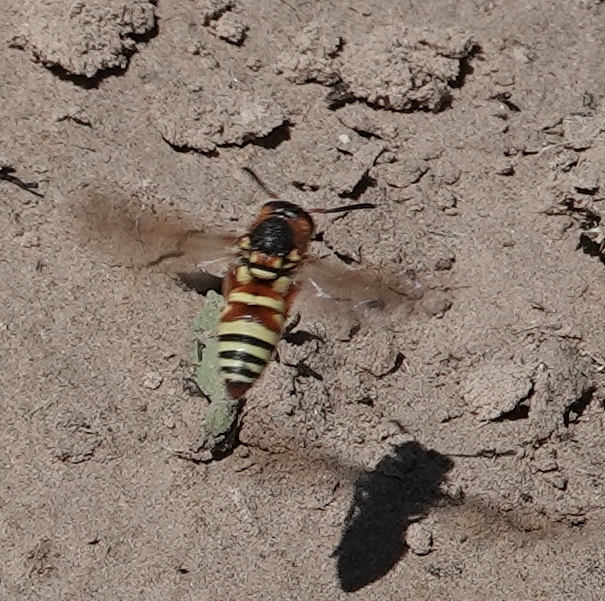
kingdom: Animalia
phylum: Arthropoda
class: Insecta
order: Hymenoptera
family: Eumenidae
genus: Euodynerus
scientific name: Euodynerus annulatus
